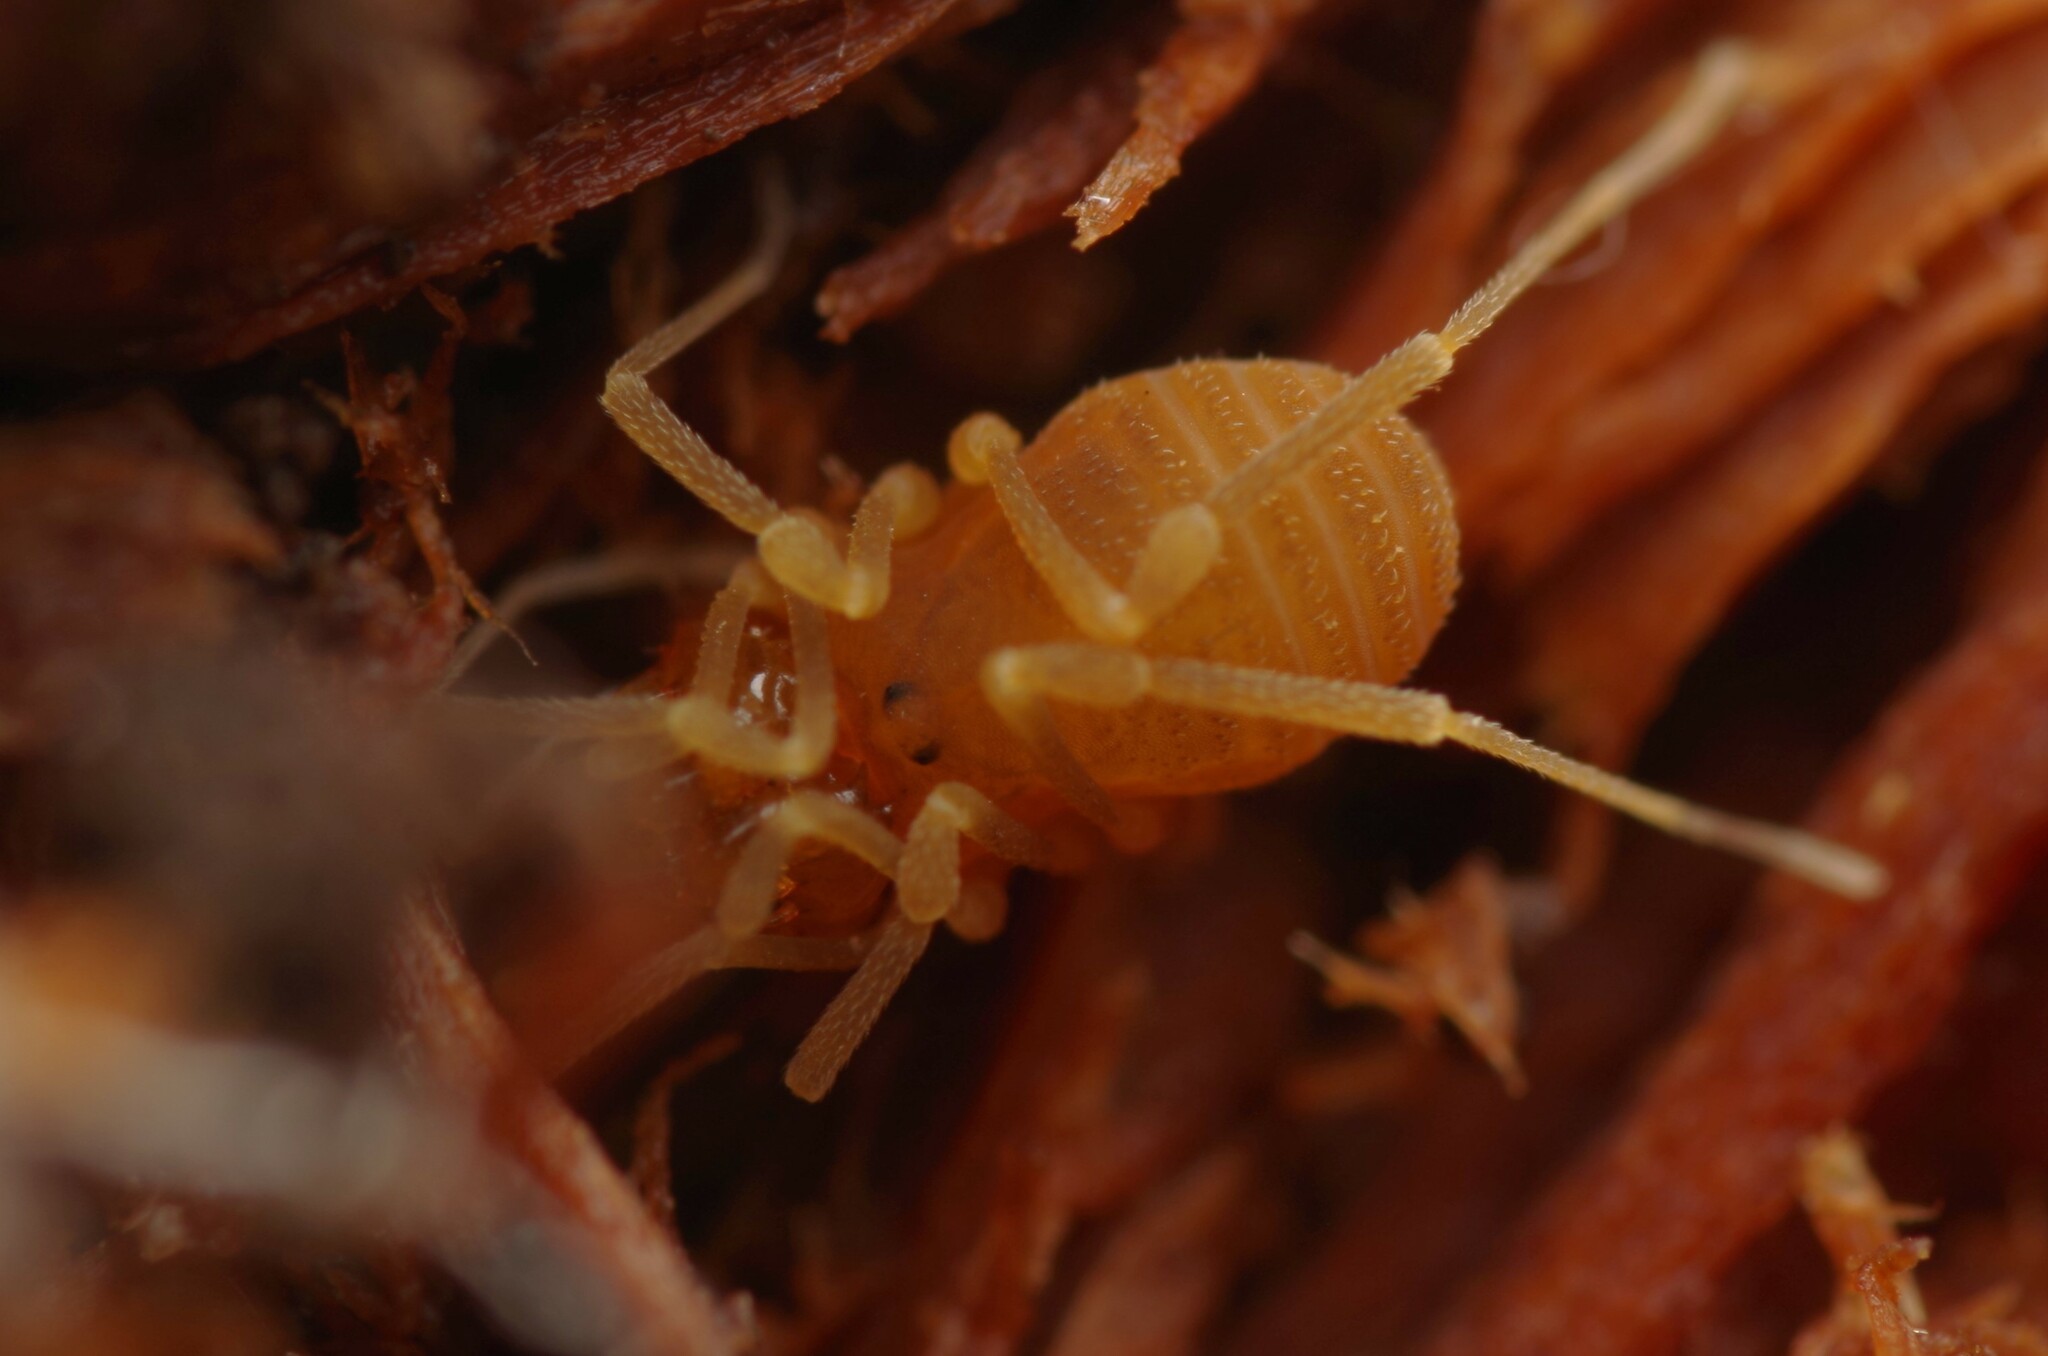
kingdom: Animalia
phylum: Arthropoda
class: Arachnida
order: Opiliones
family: Cladonychiidae
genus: Holoscotolemon
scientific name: Holoscotolemon querilhaci
